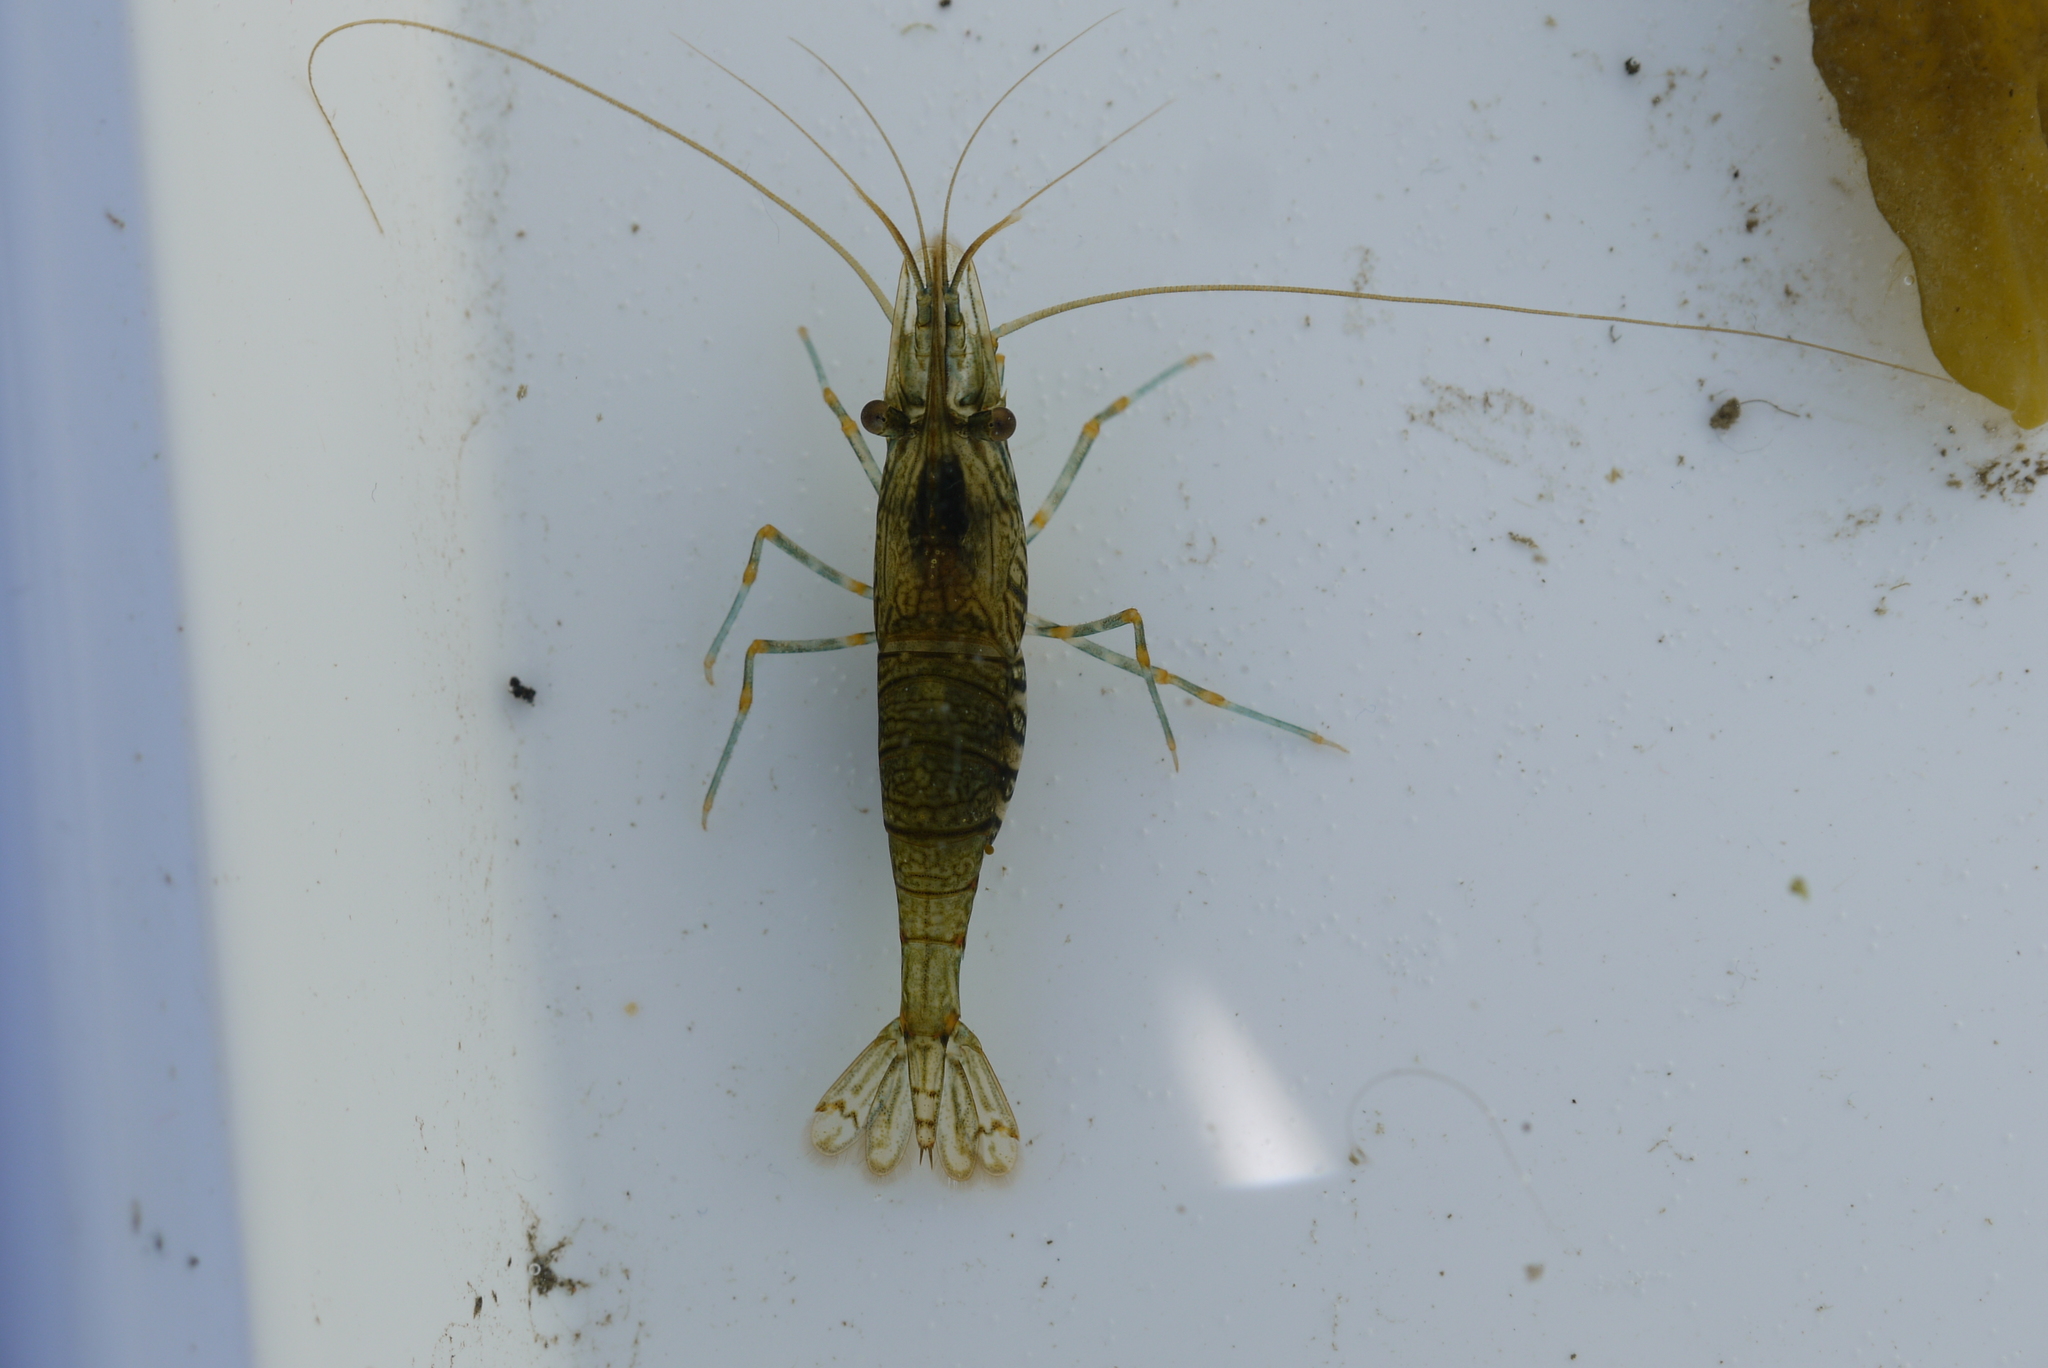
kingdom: Animalia
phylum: Arthropoda
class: Malacostraca
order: Decapoda
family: Palaemonidae
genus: Palaemon
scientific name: Palaemon elegans
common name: Grass prawm
